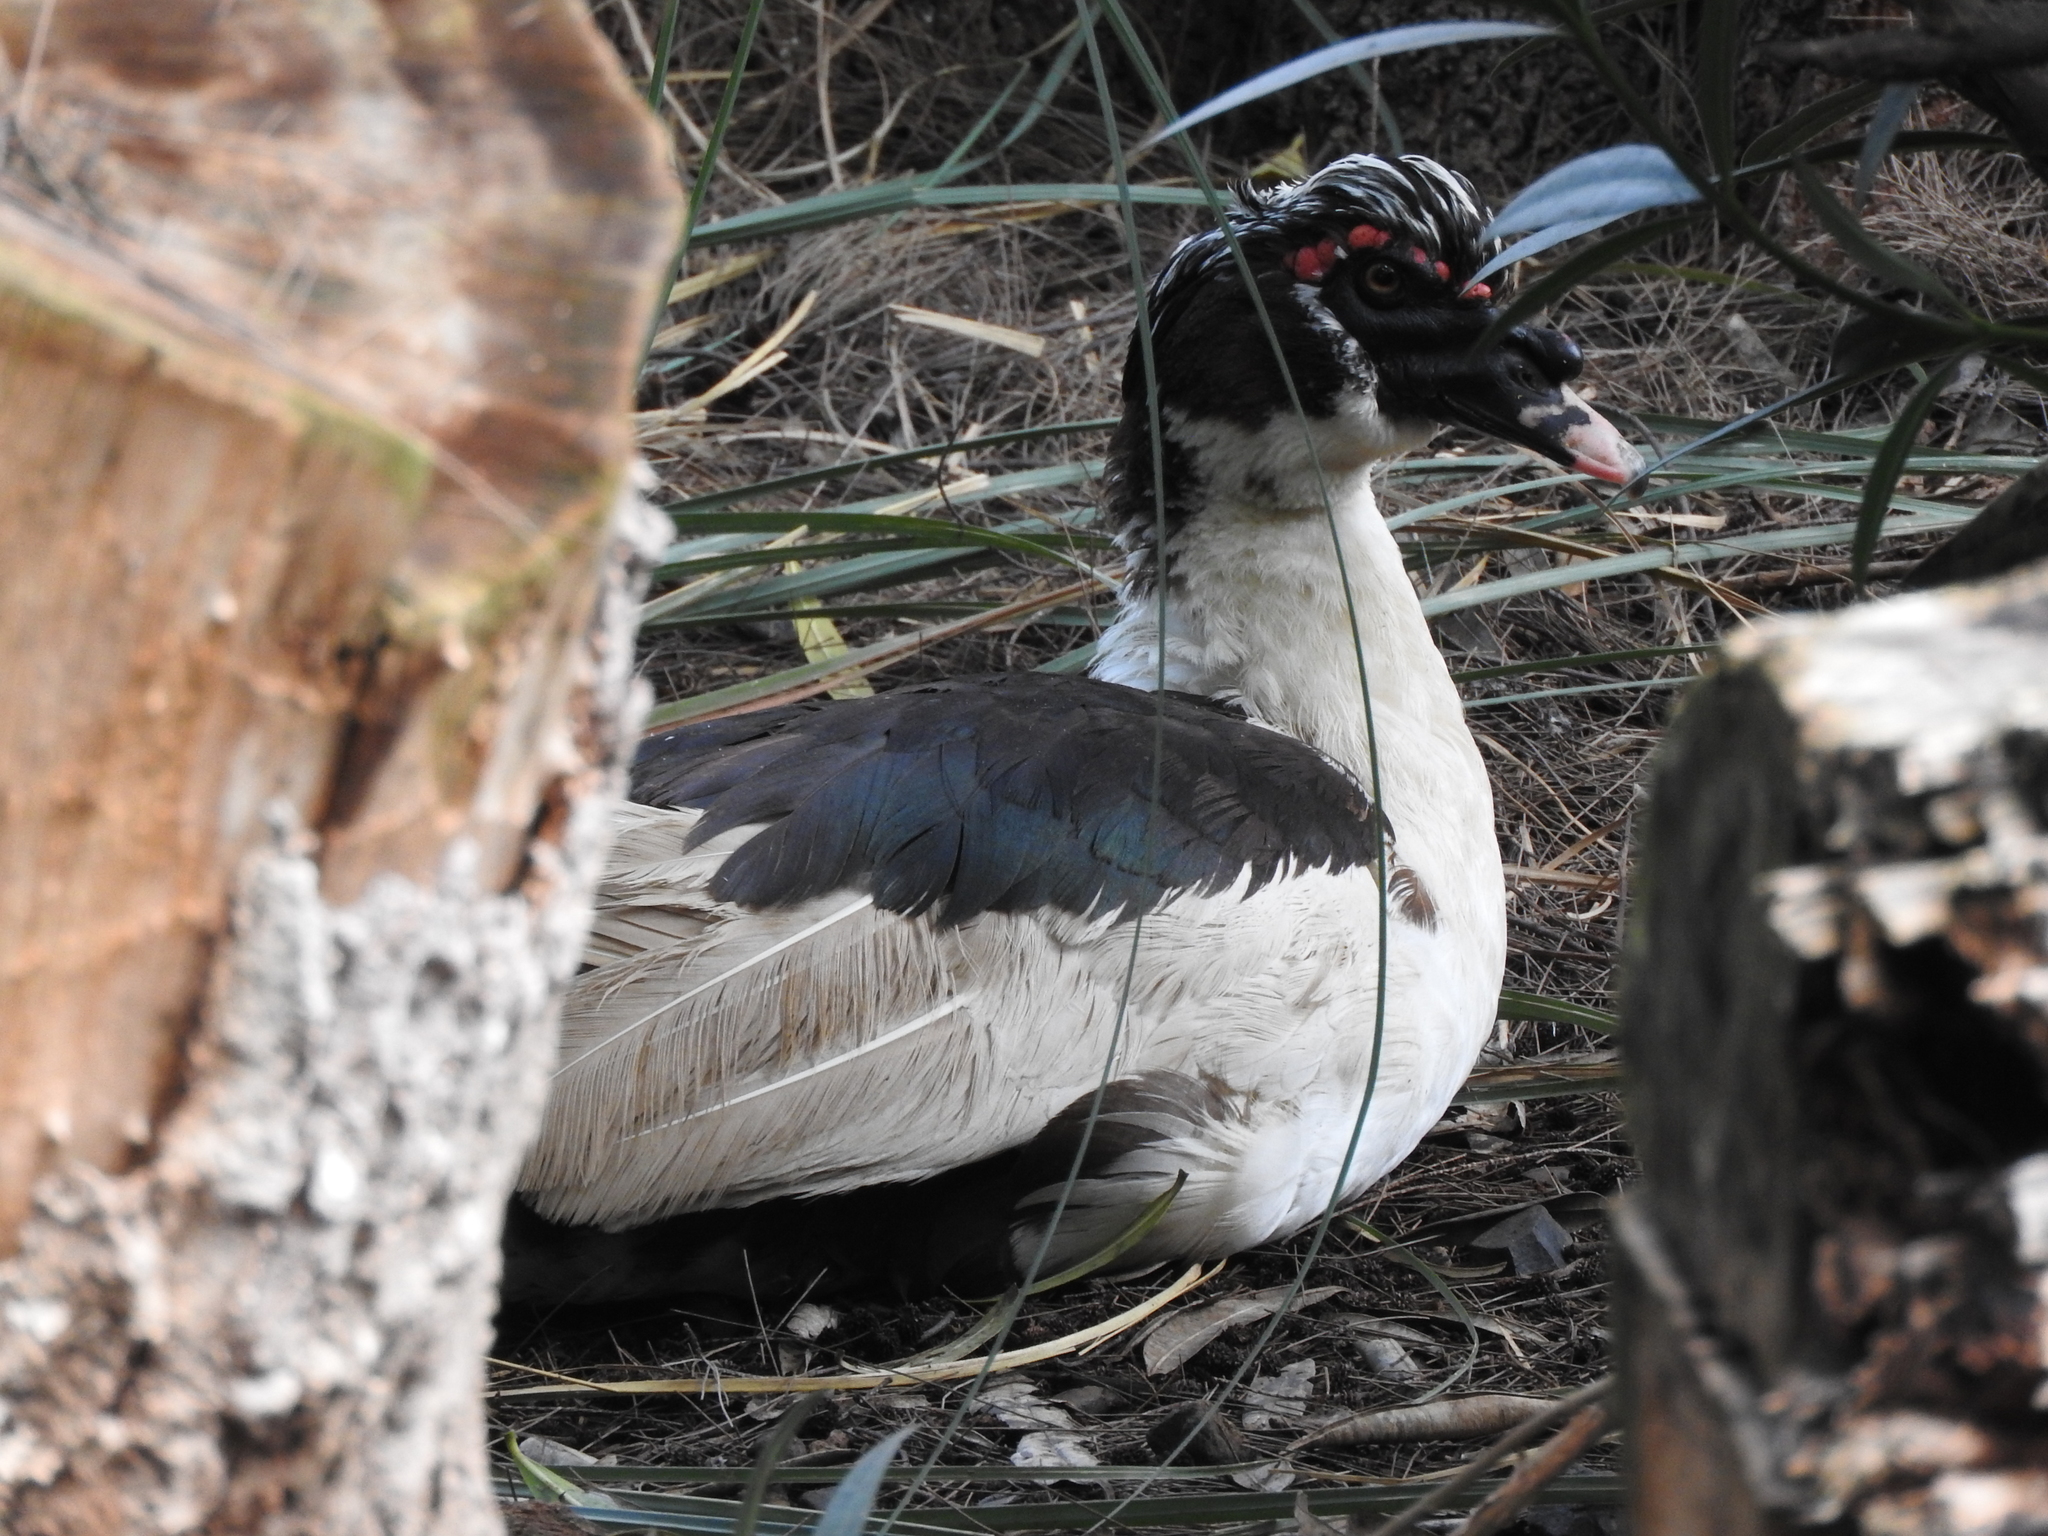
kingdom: Animalia
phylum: Chordata
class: Aves
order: Anseriformes
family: Anatidae
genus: Cairina
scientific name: Cairina moschata
